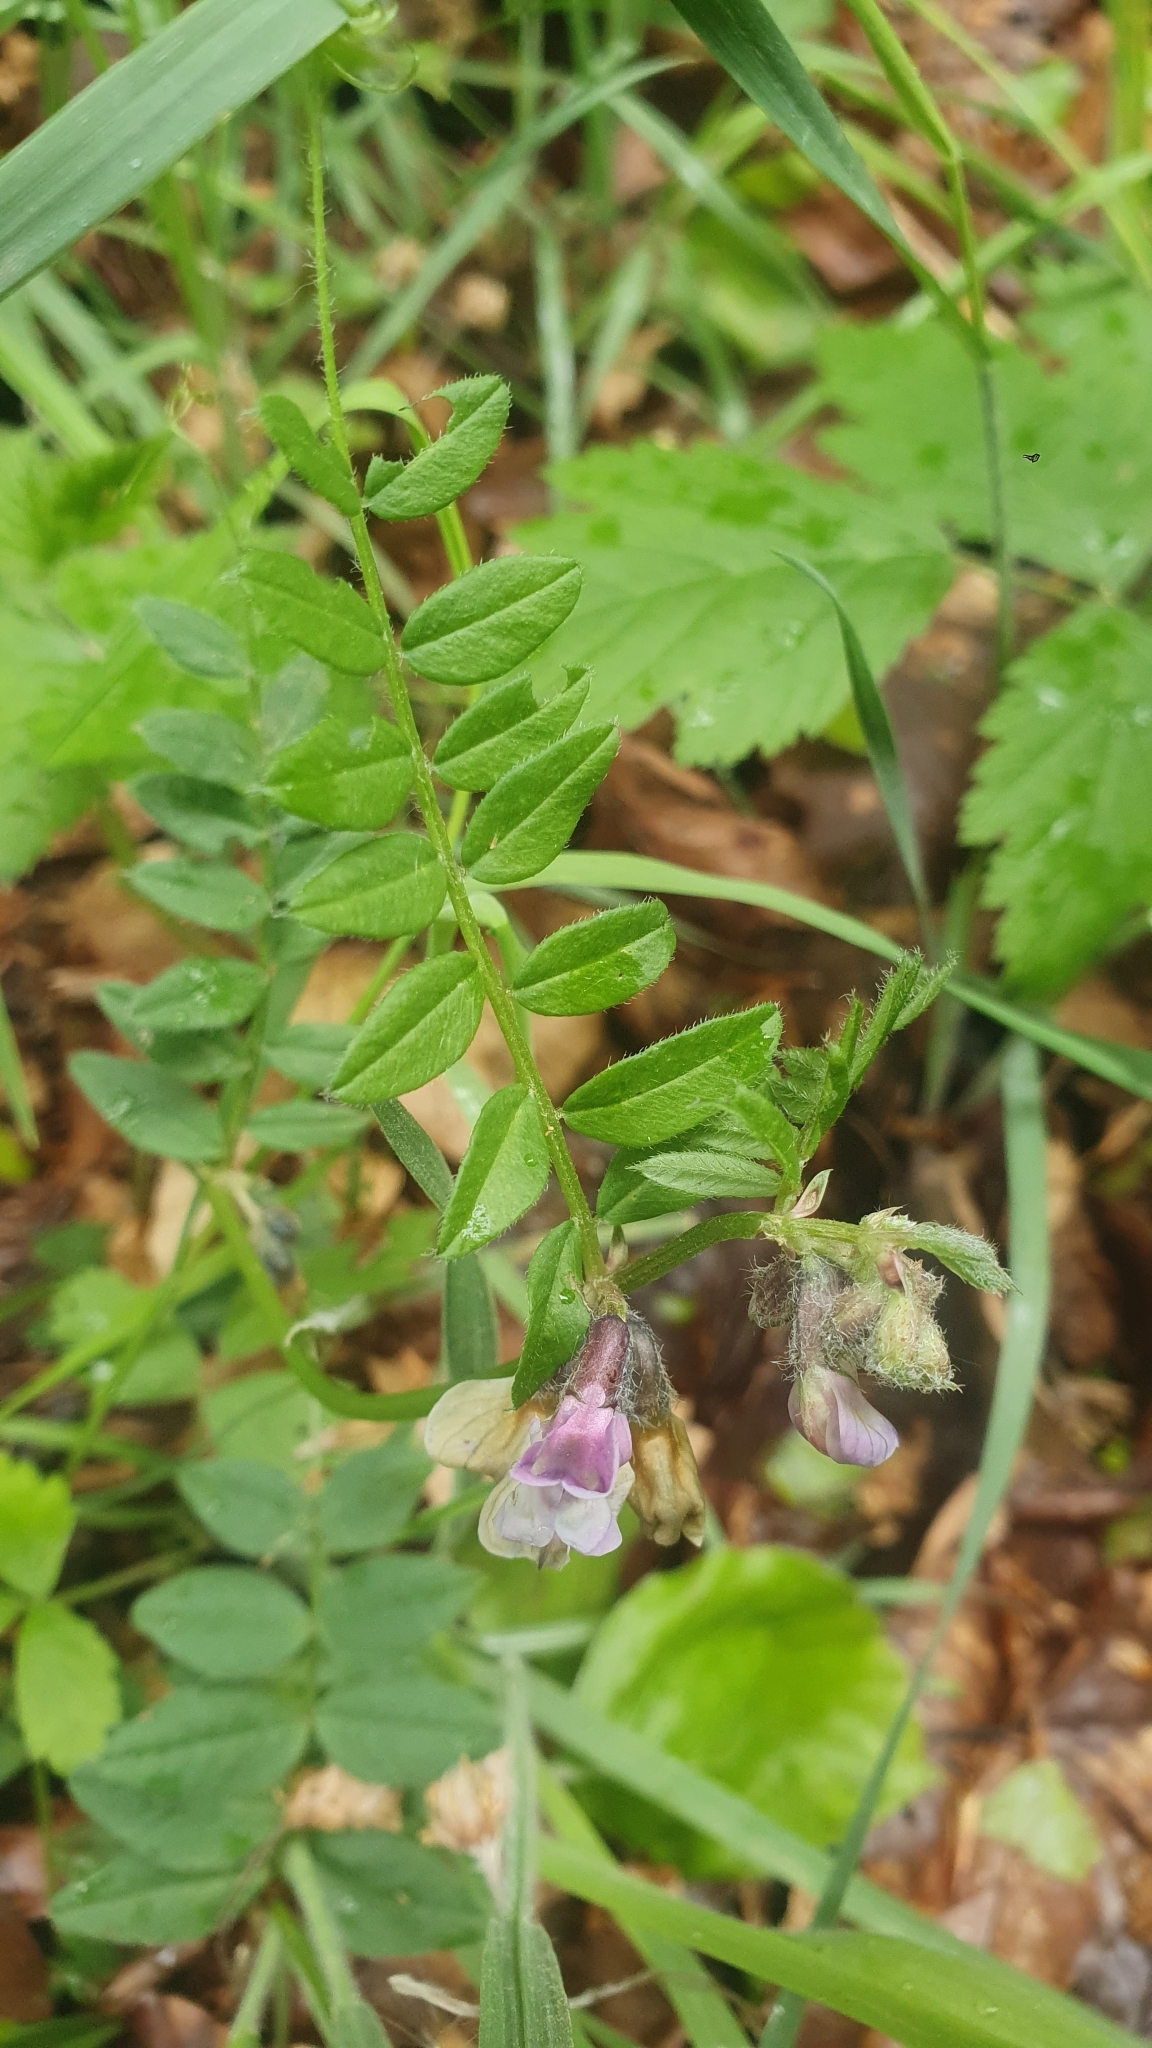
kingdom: Plantae
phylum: Tracheophyta
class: Magnoliopsida
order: Fabales
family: Fabaceae
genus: Vicia
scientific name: Vicia sepium
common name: Bush vetch
